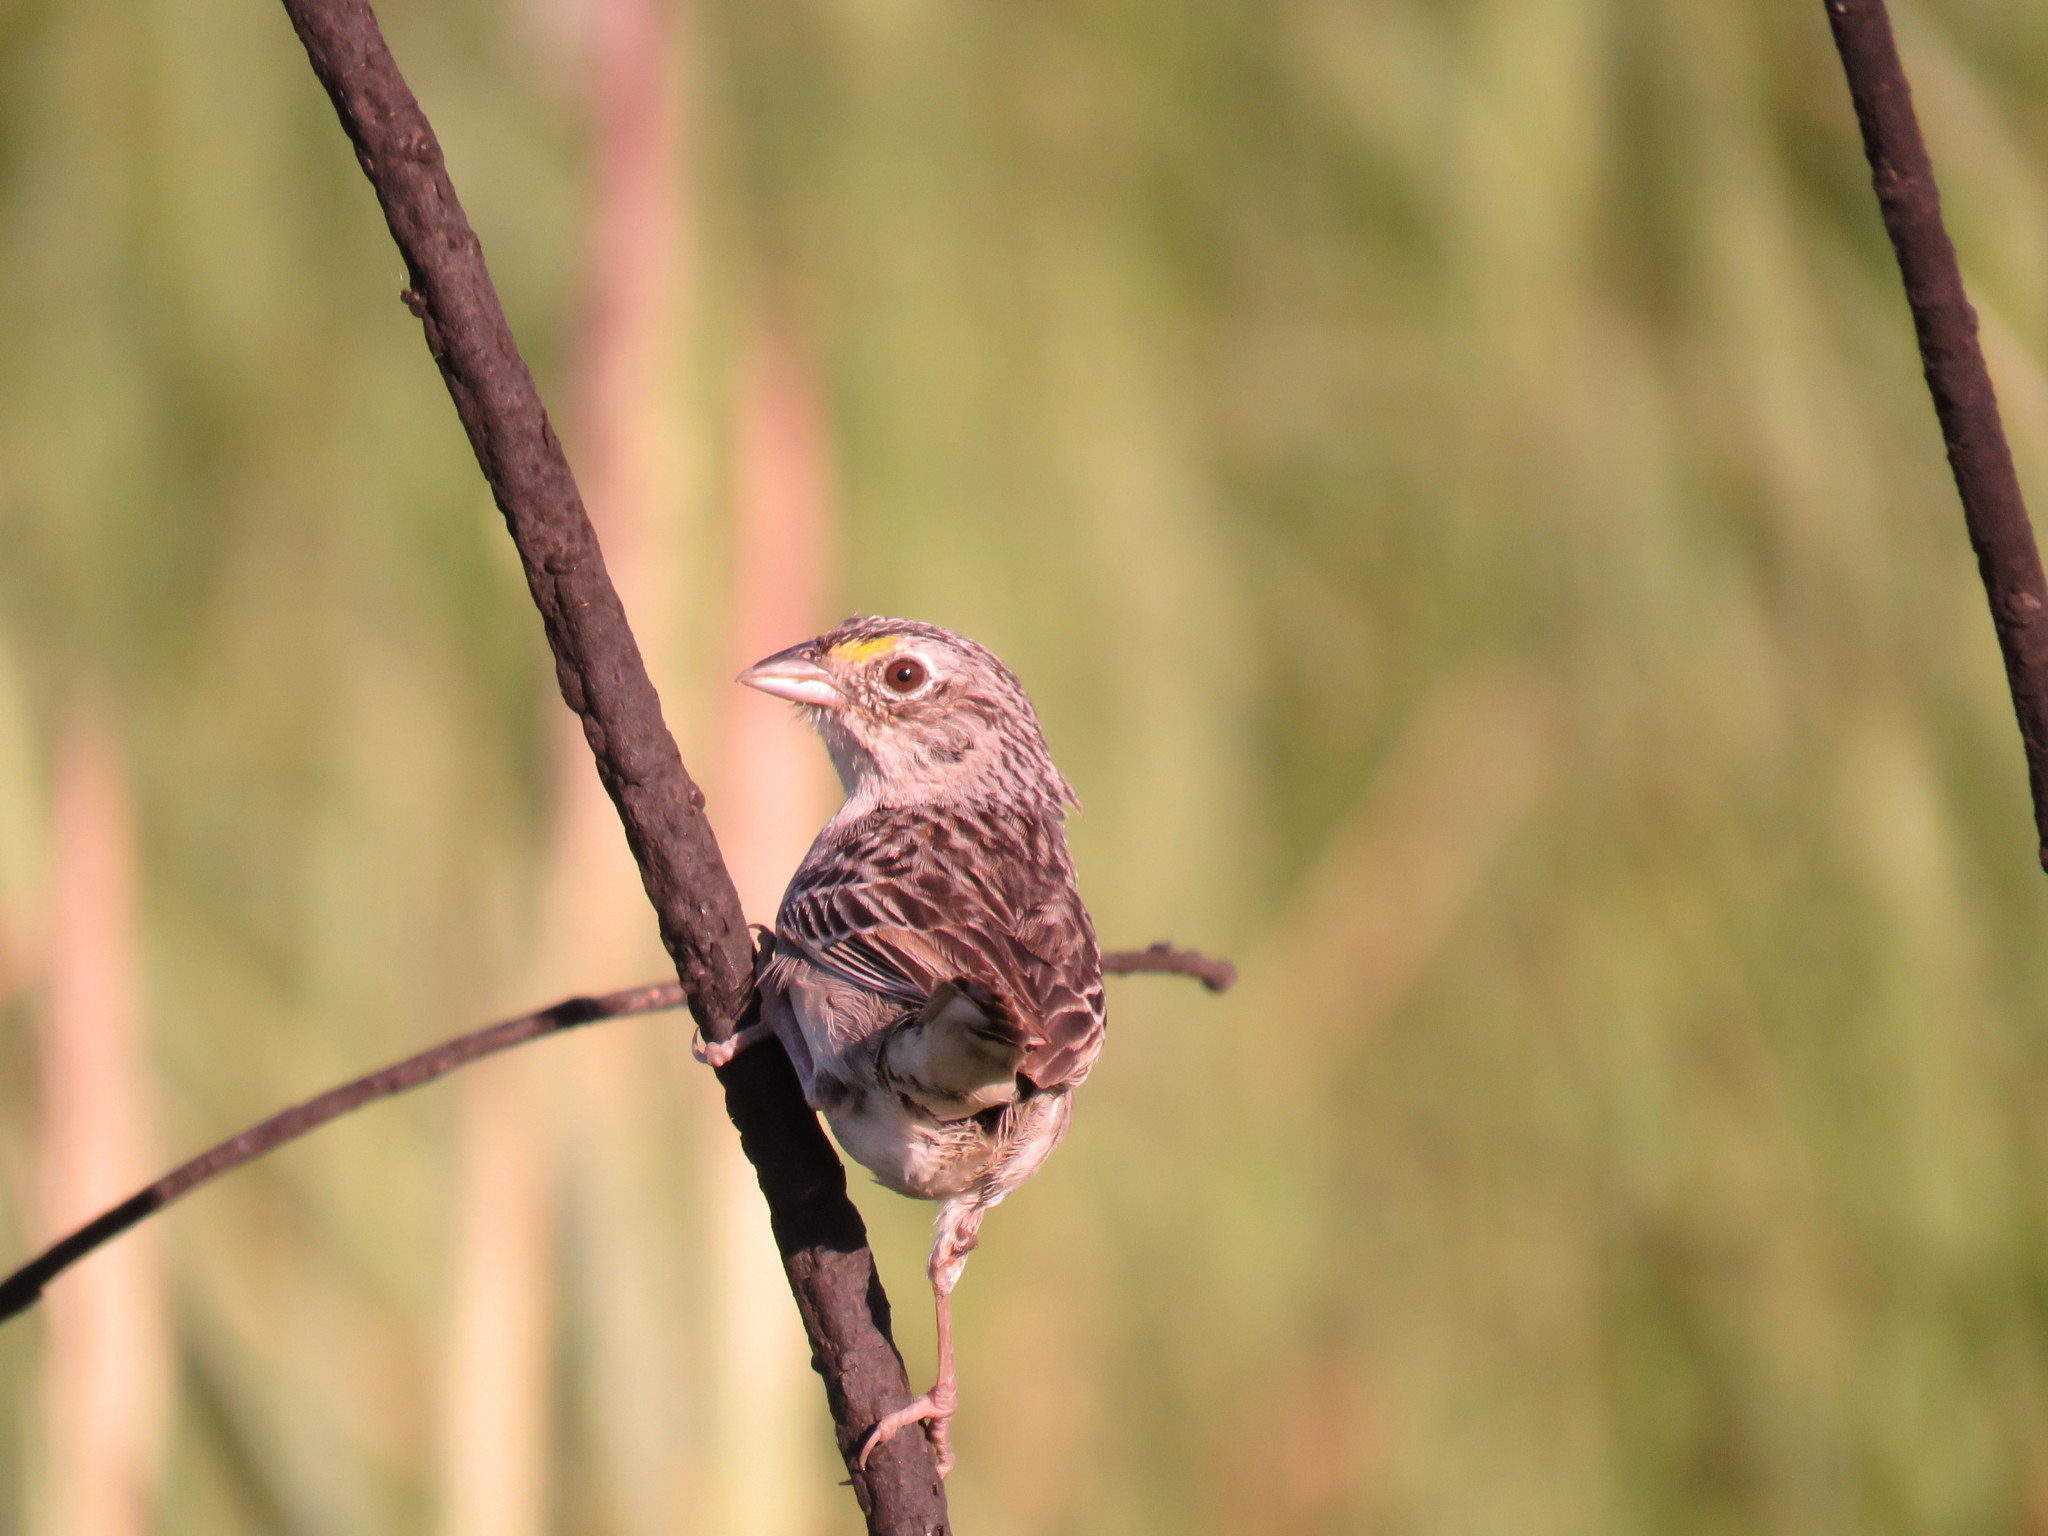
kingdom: Animalia
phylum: Chordata
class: Aves
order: Passeriformes
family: Passerellidae
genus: Ammodramus
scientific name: Ammodramus humeralis
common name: Grassland sparrow
